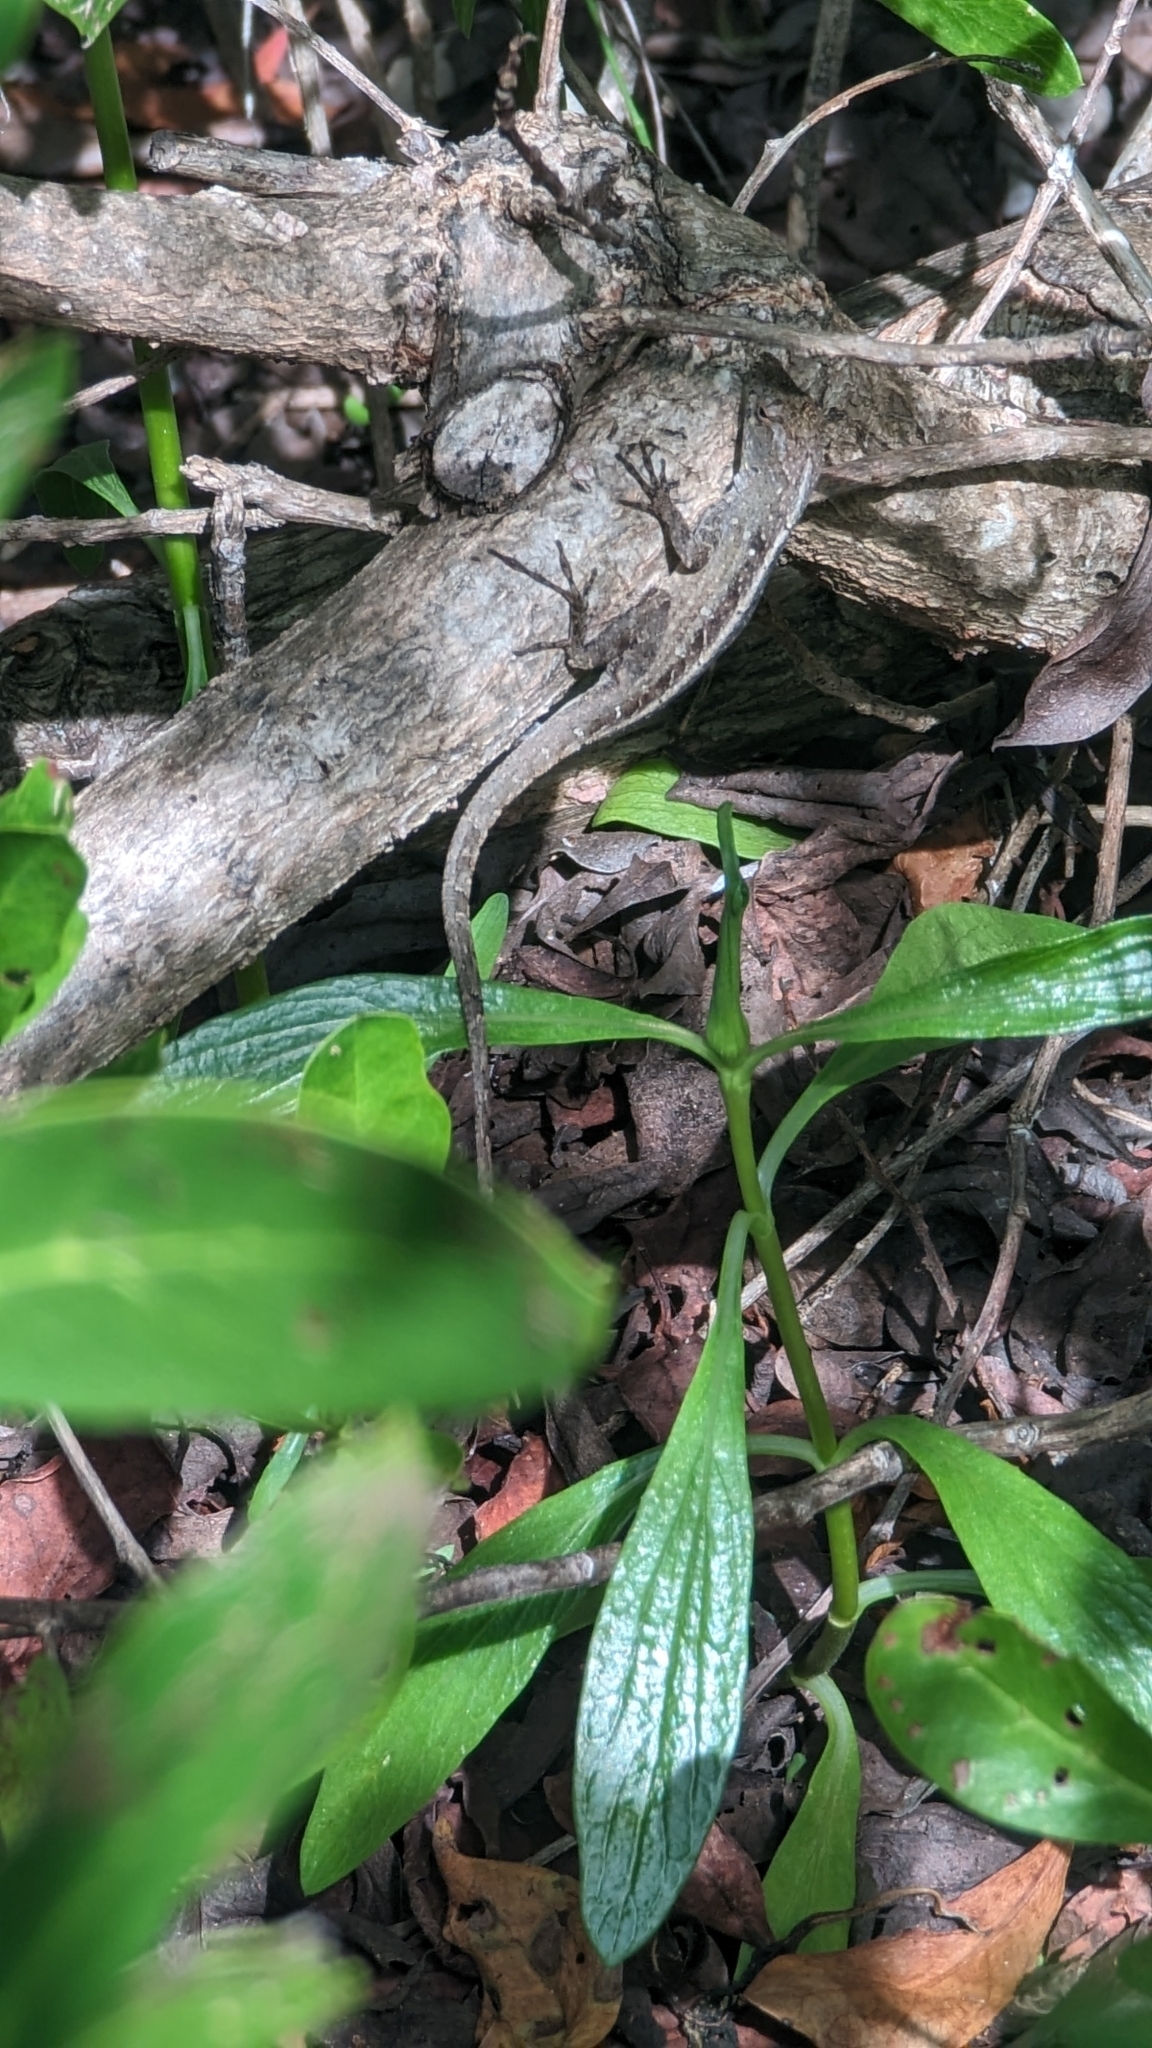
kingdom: Animalia
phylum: Chordata
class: Squamata
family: Dactyloidae
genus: Anolis
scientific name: Anolis sagrei
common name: Brown anole
